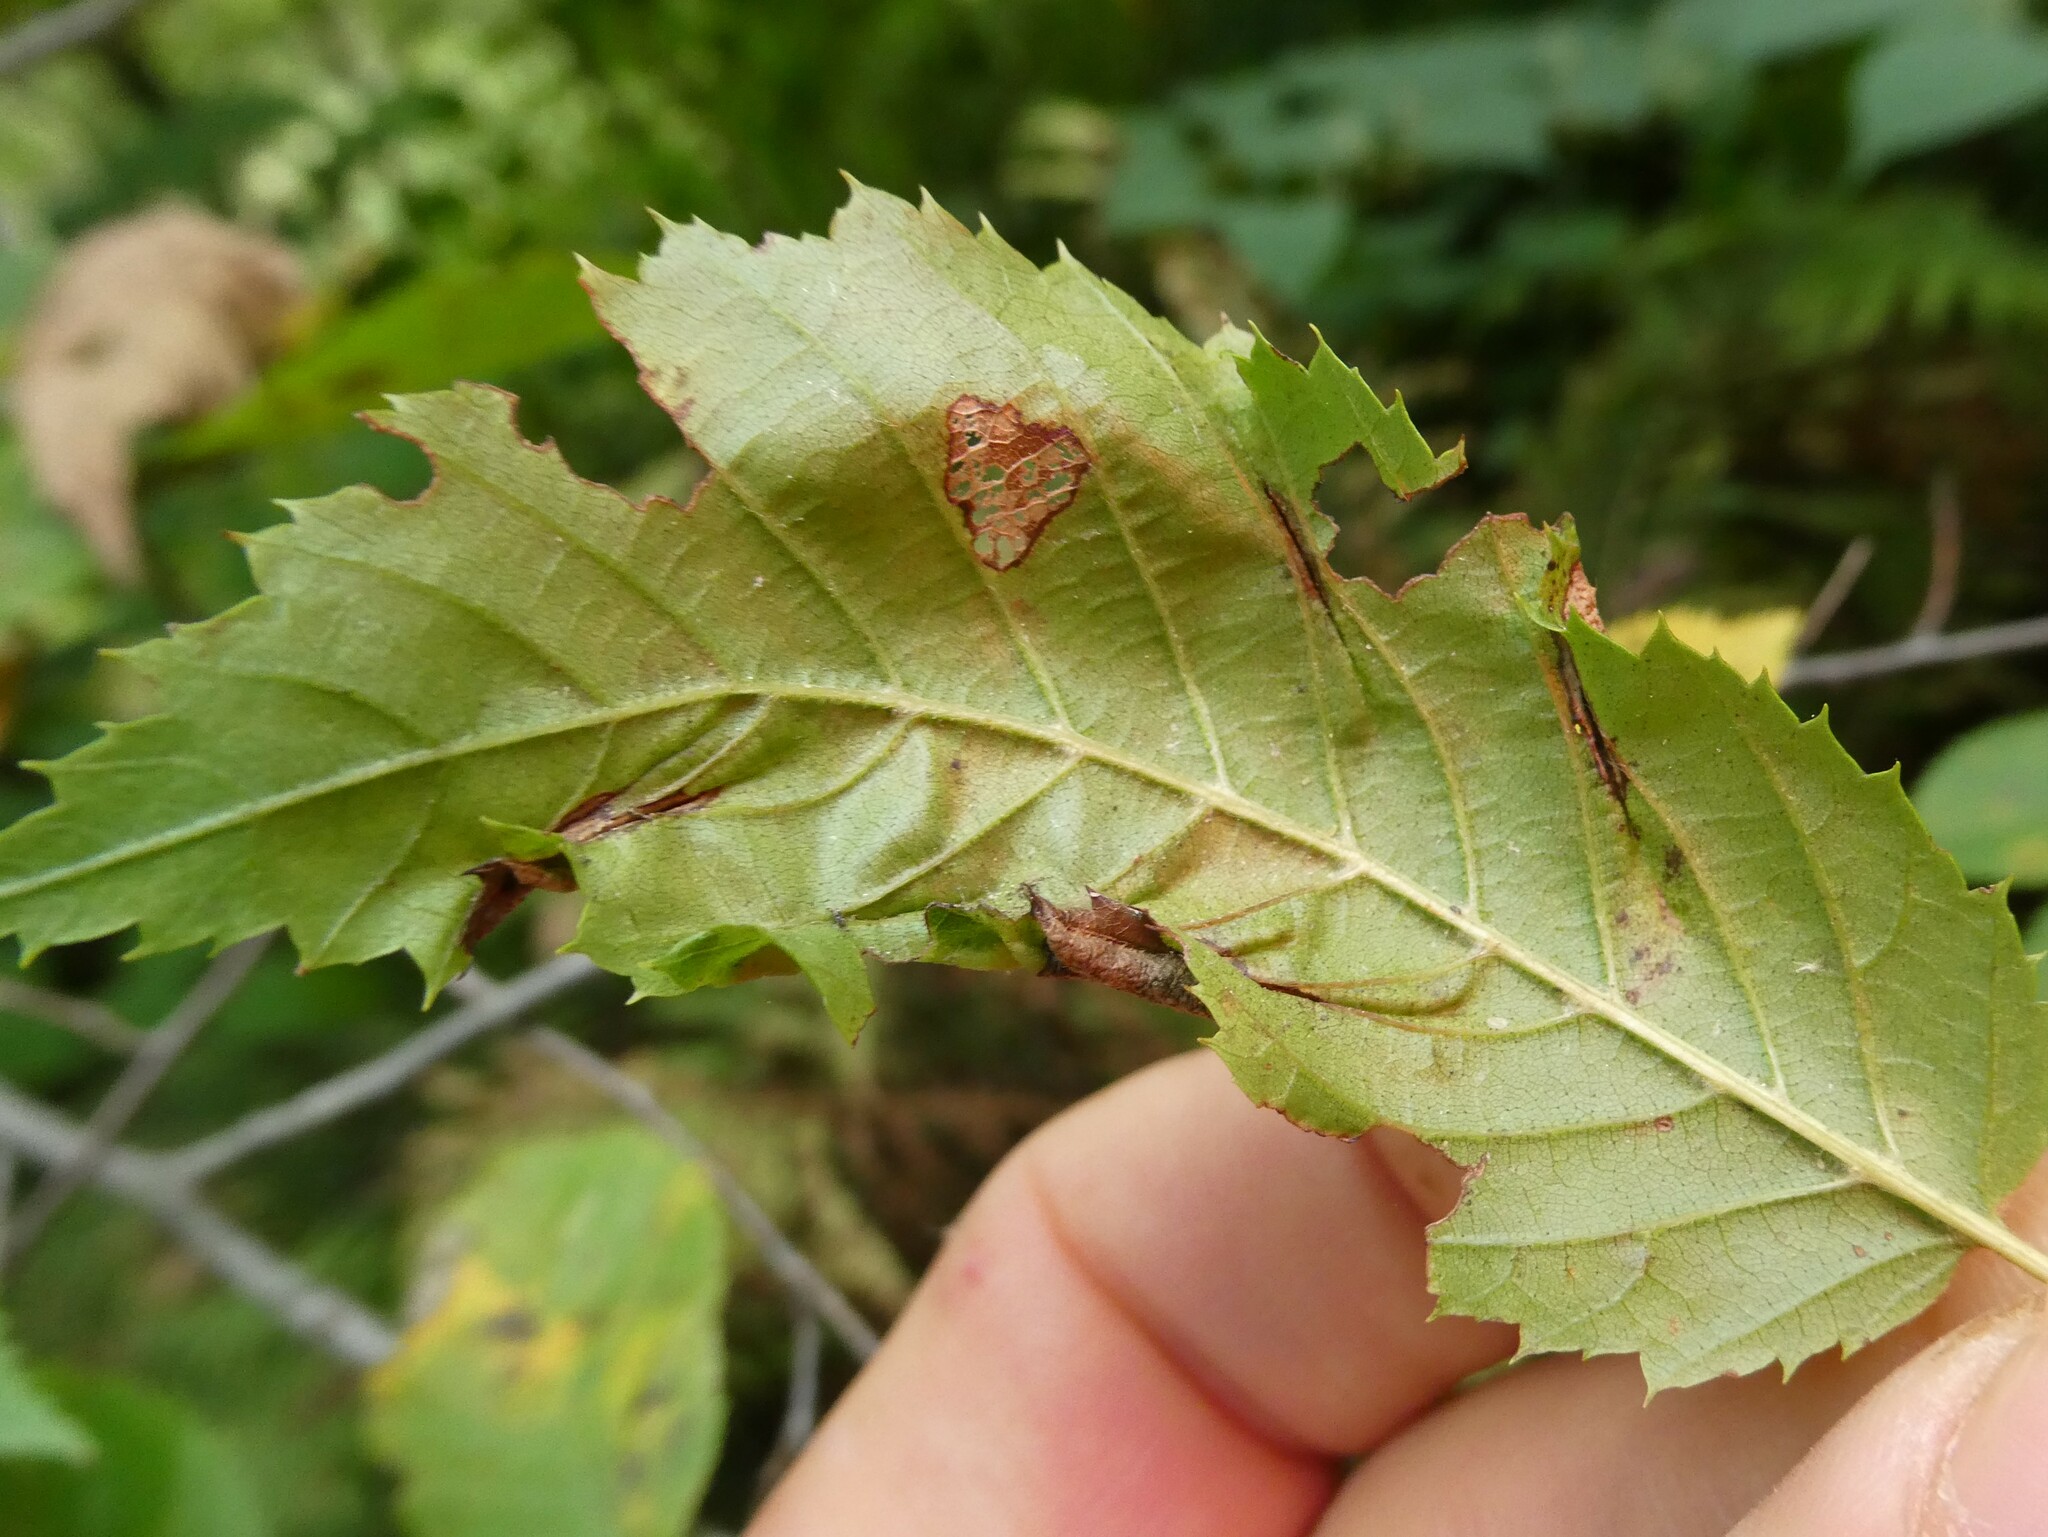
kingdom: Animalia
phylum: Arthropoda
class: Insecta
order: Diptera
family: Cecidomyiidae
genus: Dasineura
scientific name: Dasineura pudibunda
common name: Hornbeam leaf gall midge
